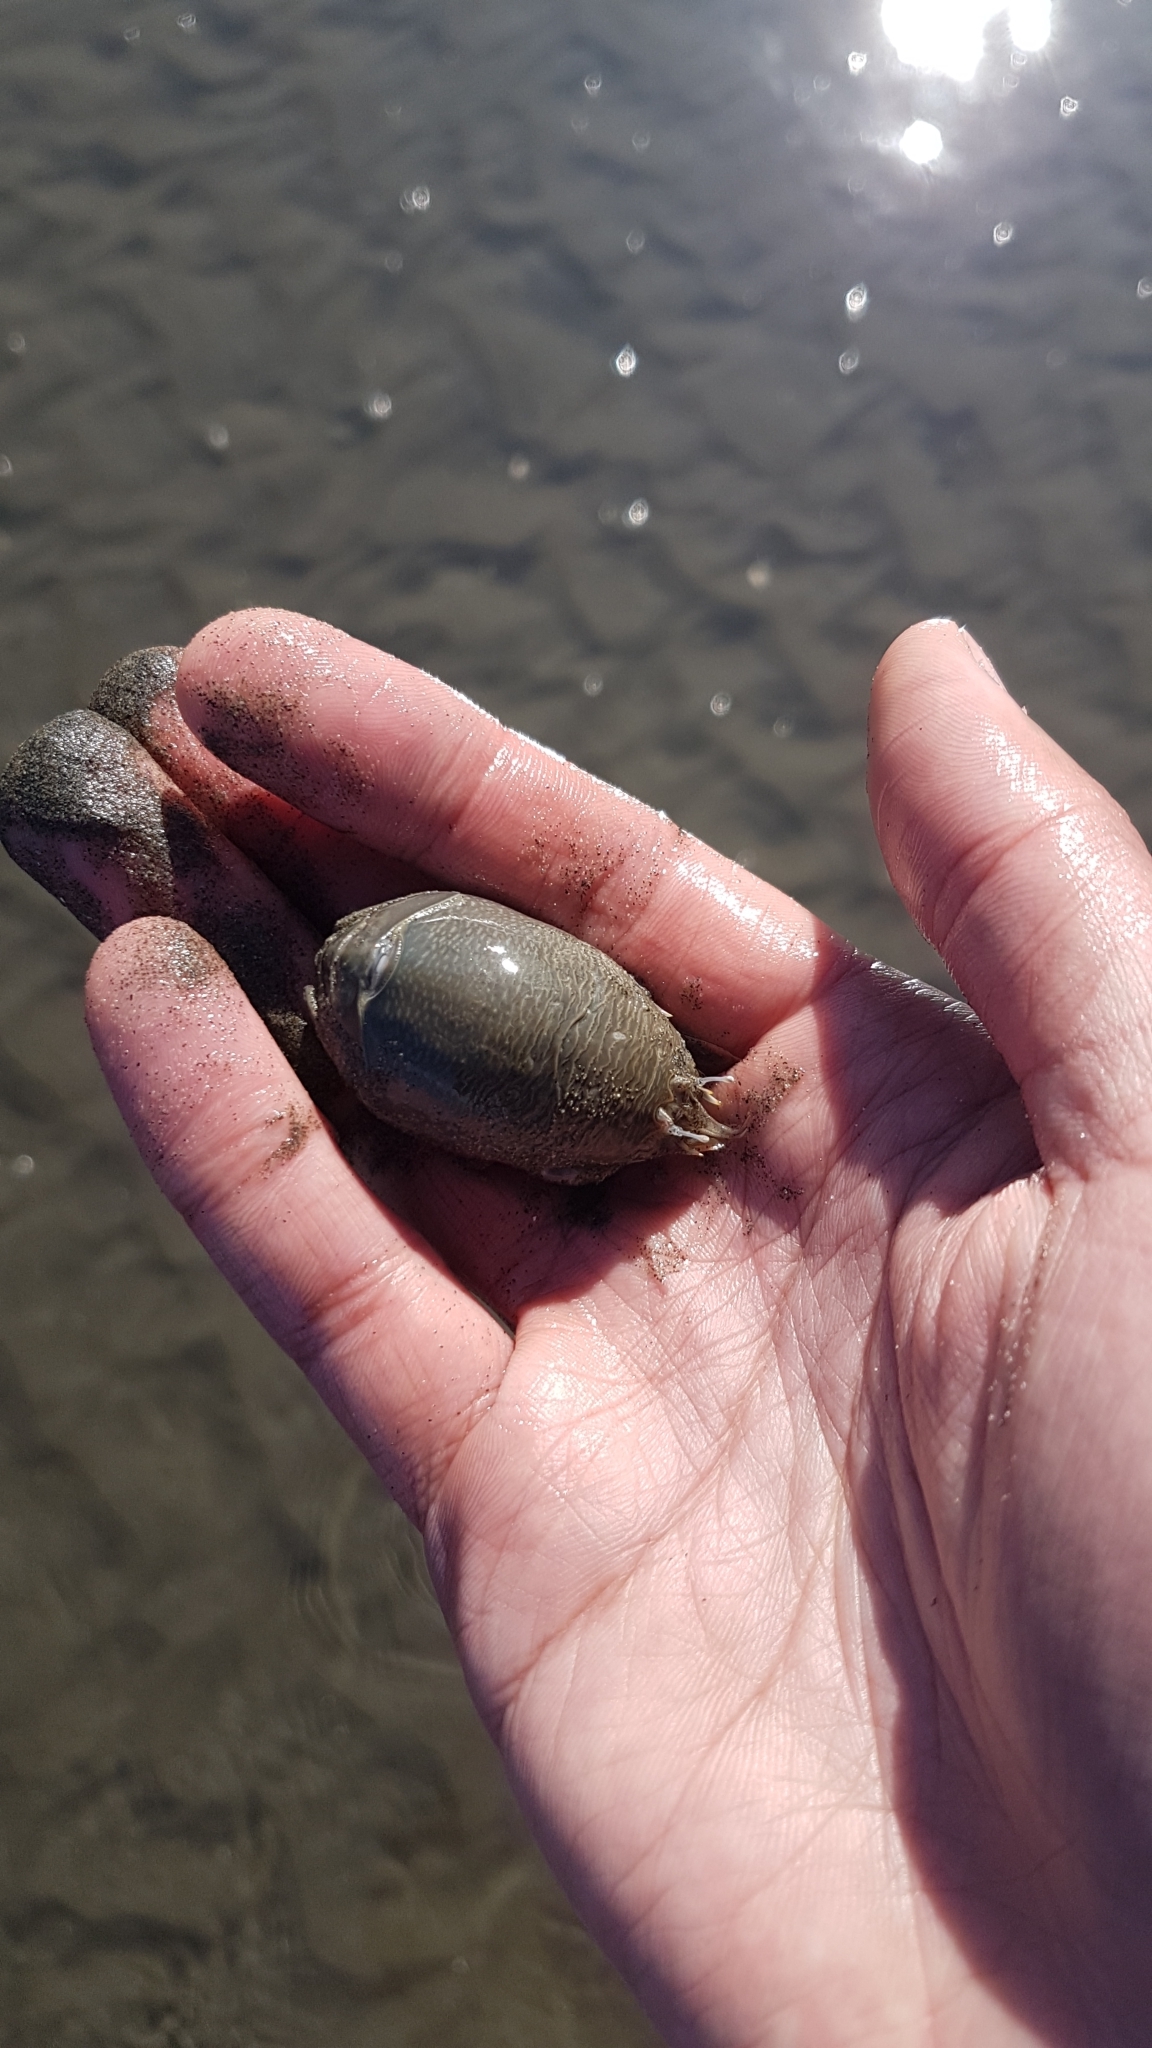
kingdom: Animalia
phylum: Arthropoda
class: Malacostraca
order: Decapoda
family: Hippidae
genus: Emerita
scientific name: Emerita analoga
